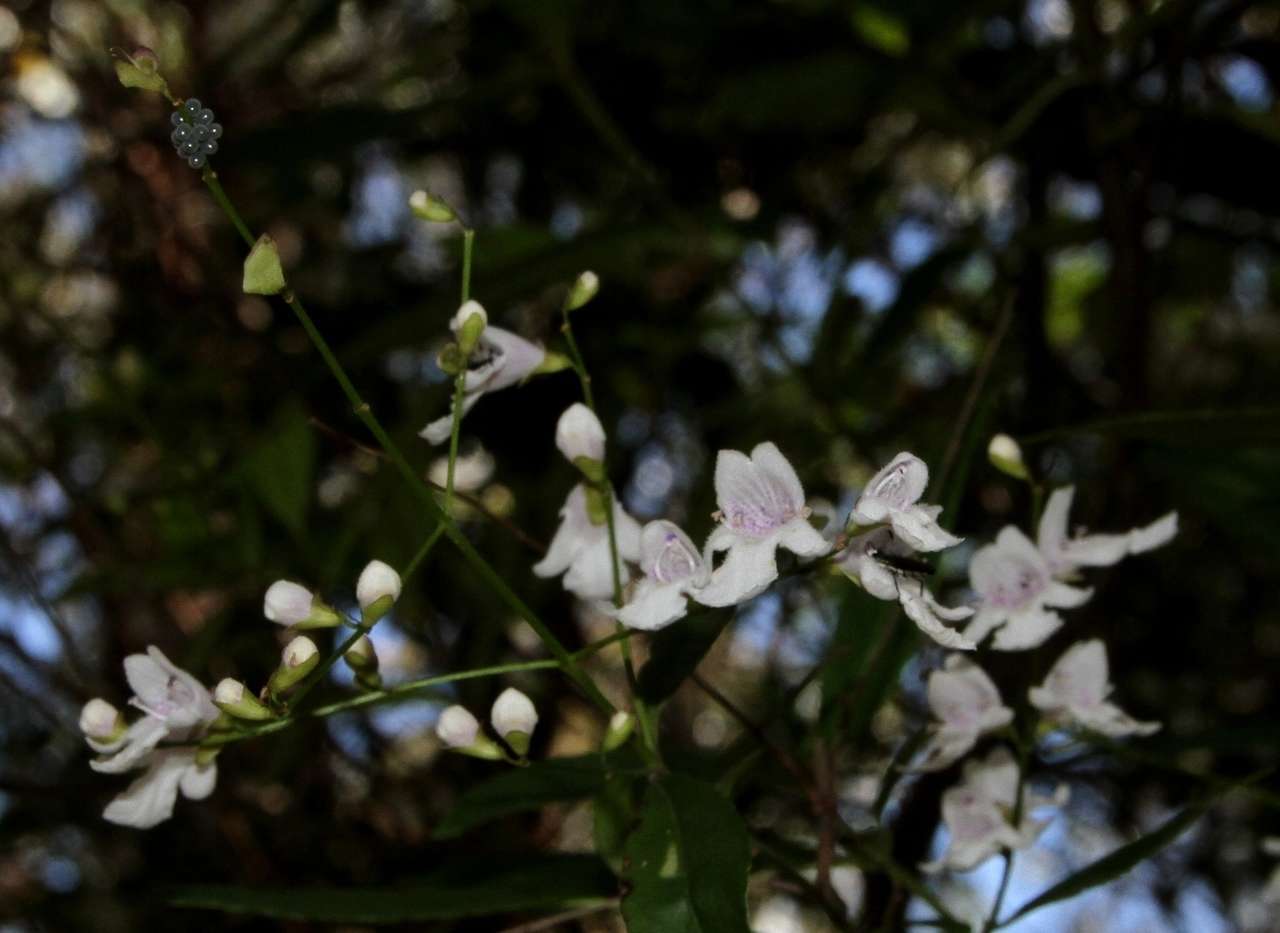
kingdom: Plantae
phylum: Tracheophyta
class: Magnoliopsida
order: Lamiales
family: Lamiaceae
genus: Prostanthera
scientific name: Prostanthera lasianthos
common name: Mountain-lilac
